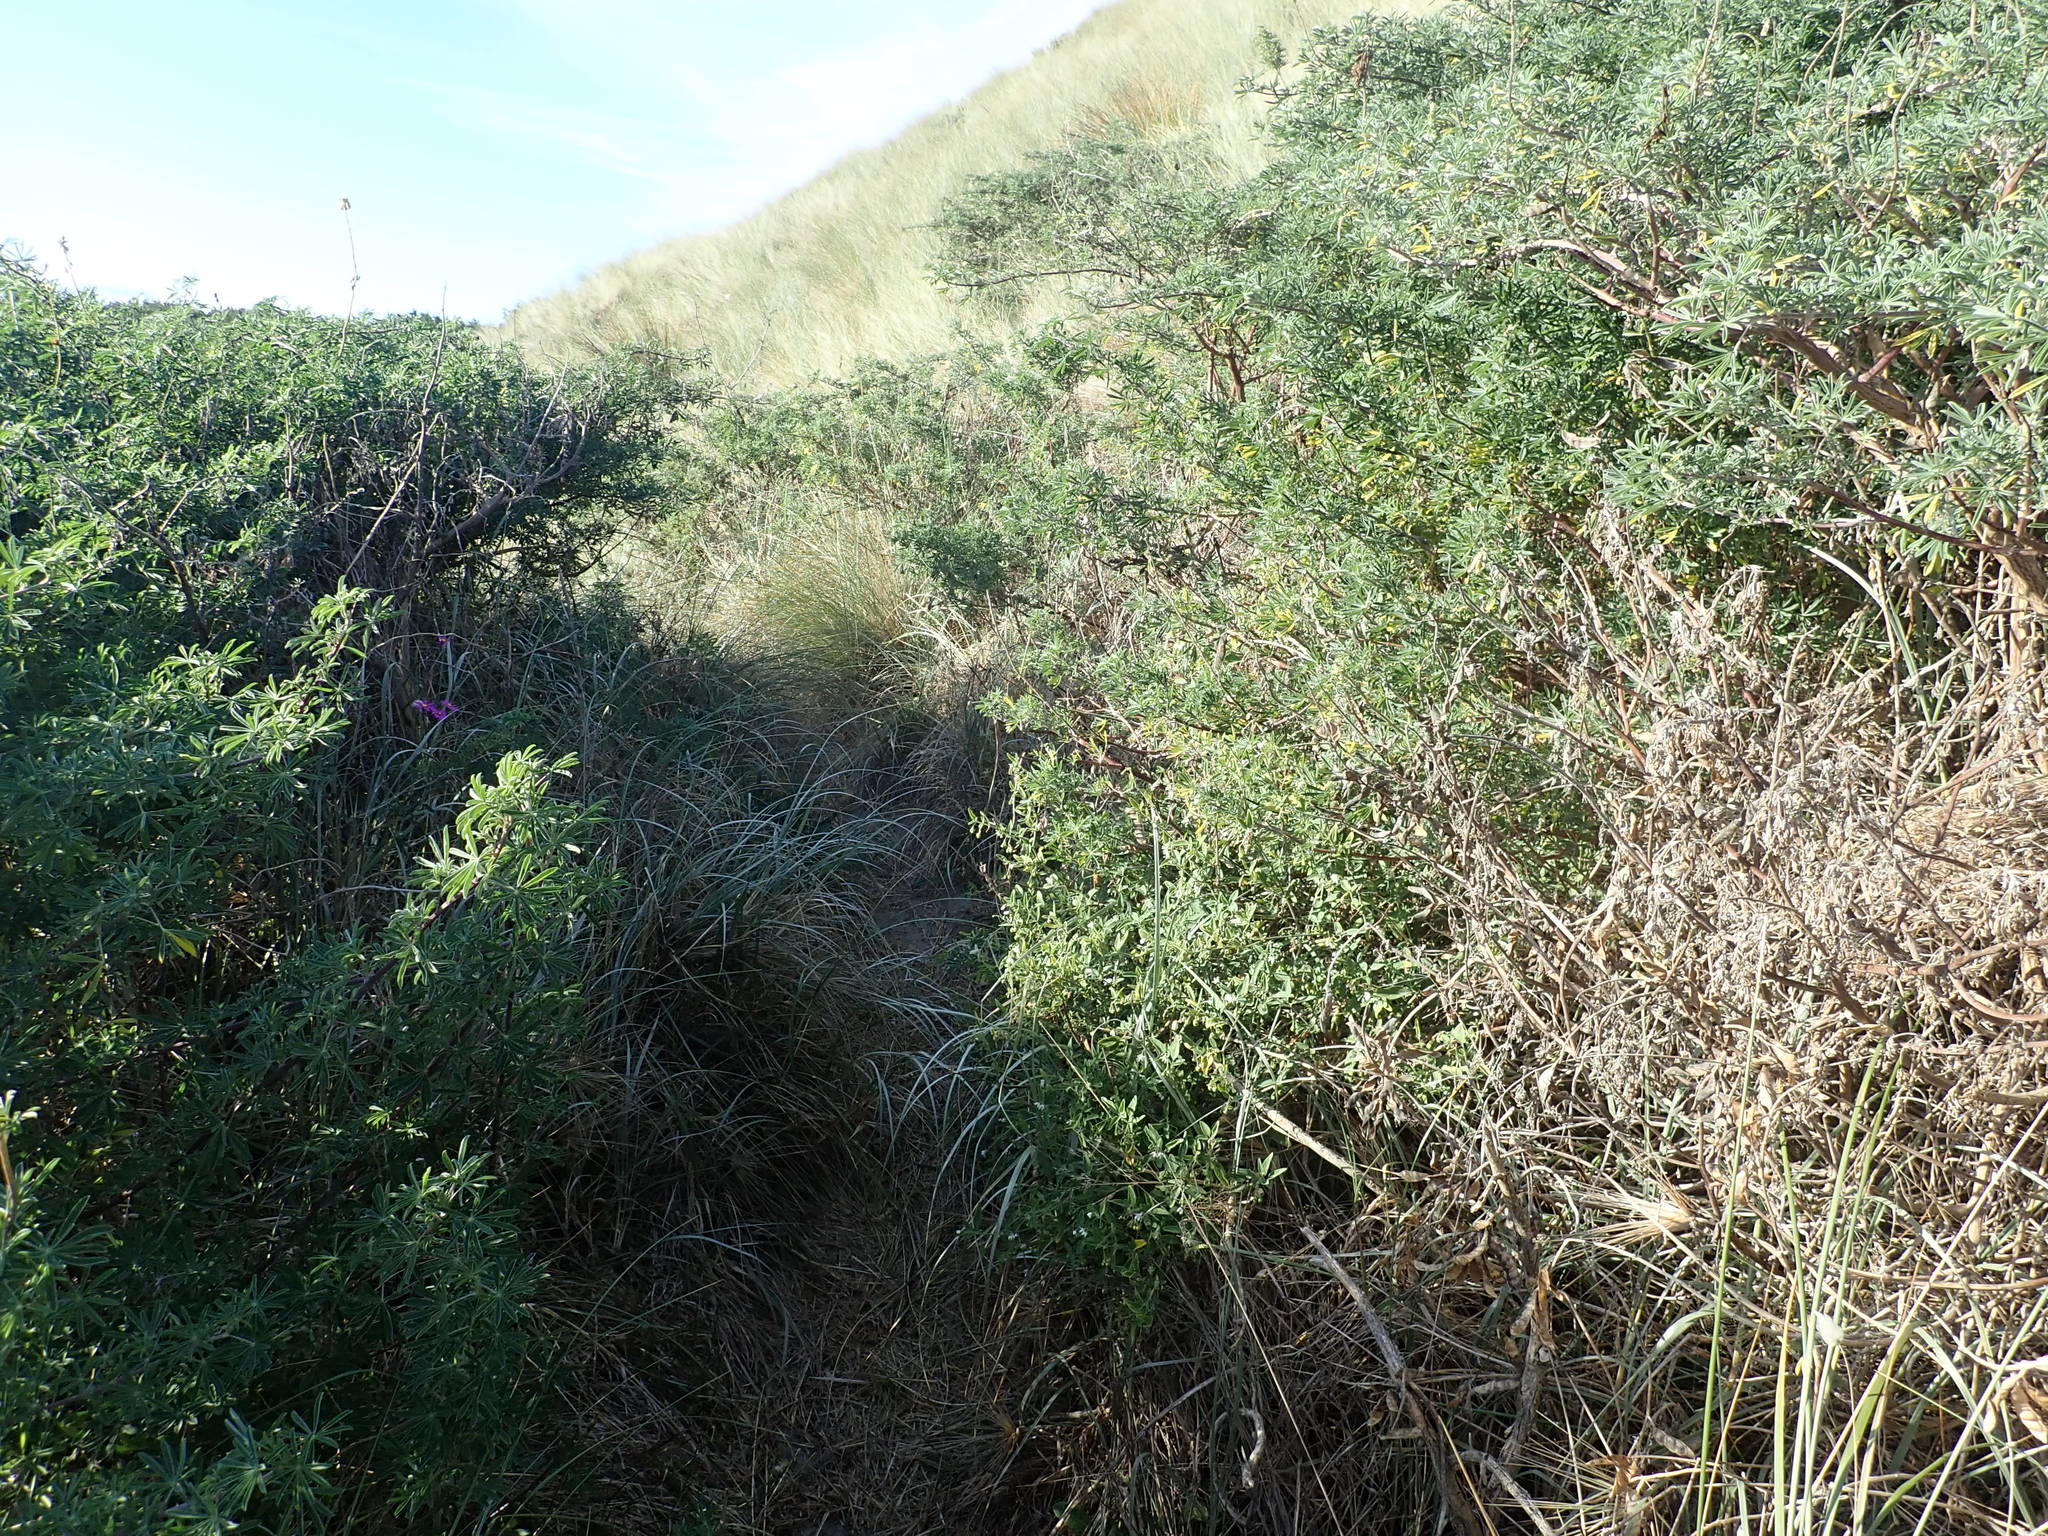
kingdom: Plantae
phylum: Tracheophyta
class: Magnoliopsida
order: Solanales
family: Solanaceae
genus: Solanum
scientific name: Solanum chenopodioides
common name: Tall nightshade
